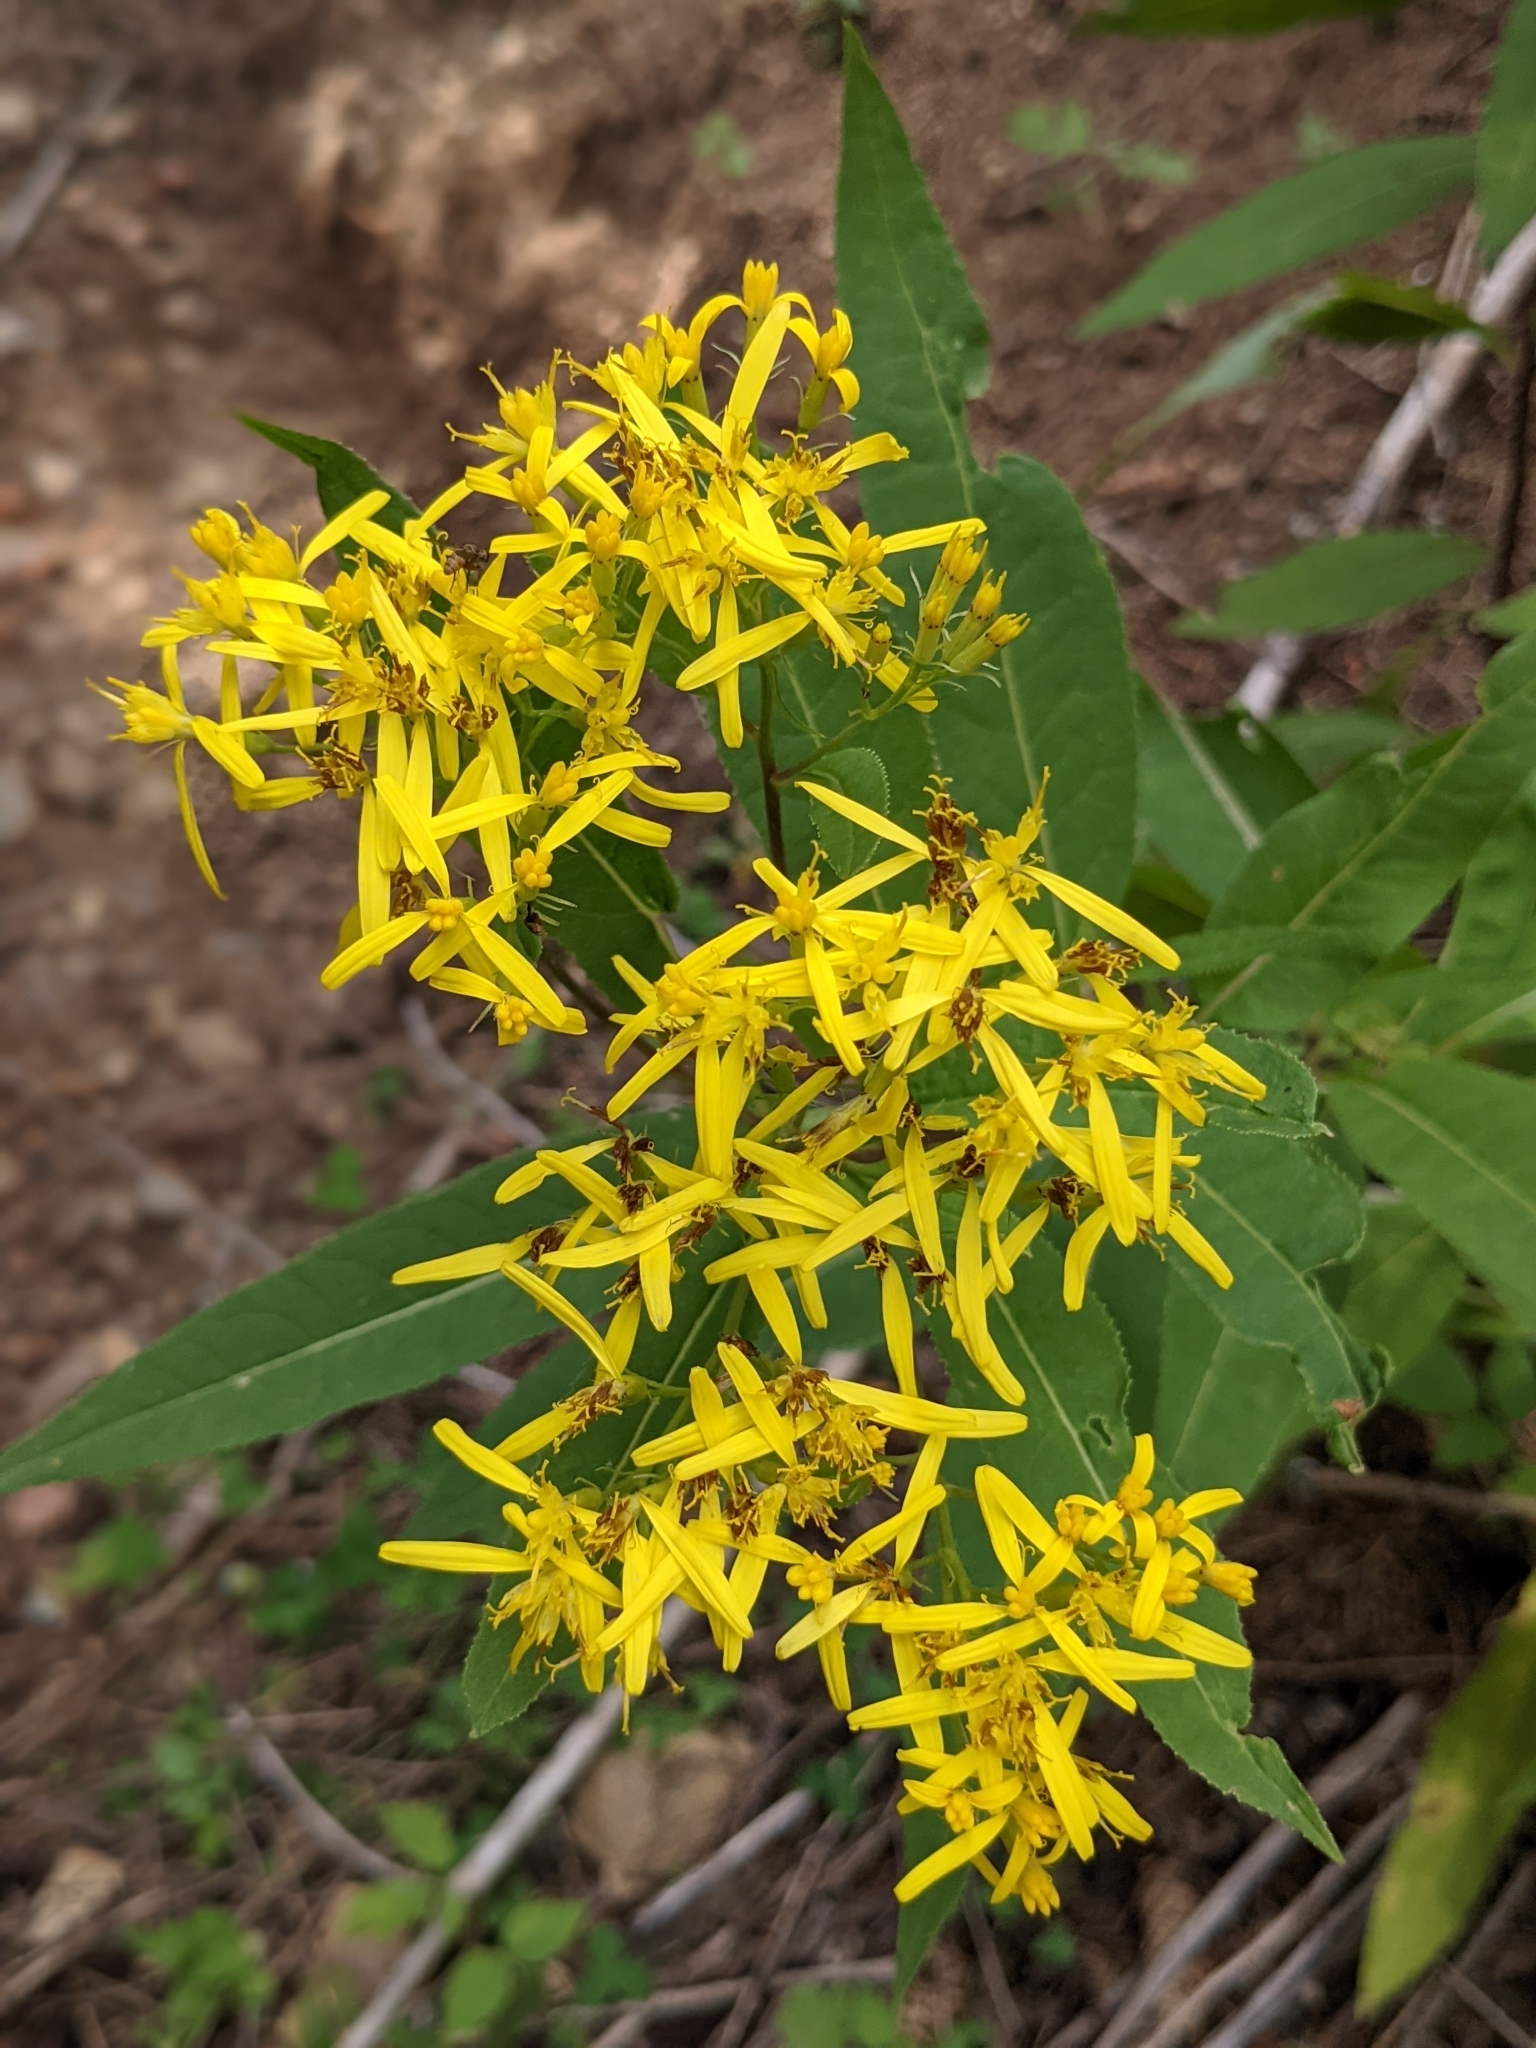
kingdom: Plantae
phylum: Tracheophyta
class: Magnoliopsida
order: Asterales
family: Asteraceae
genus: Senecio
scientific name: Senecio nemorensis
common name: Alpine ragwort
